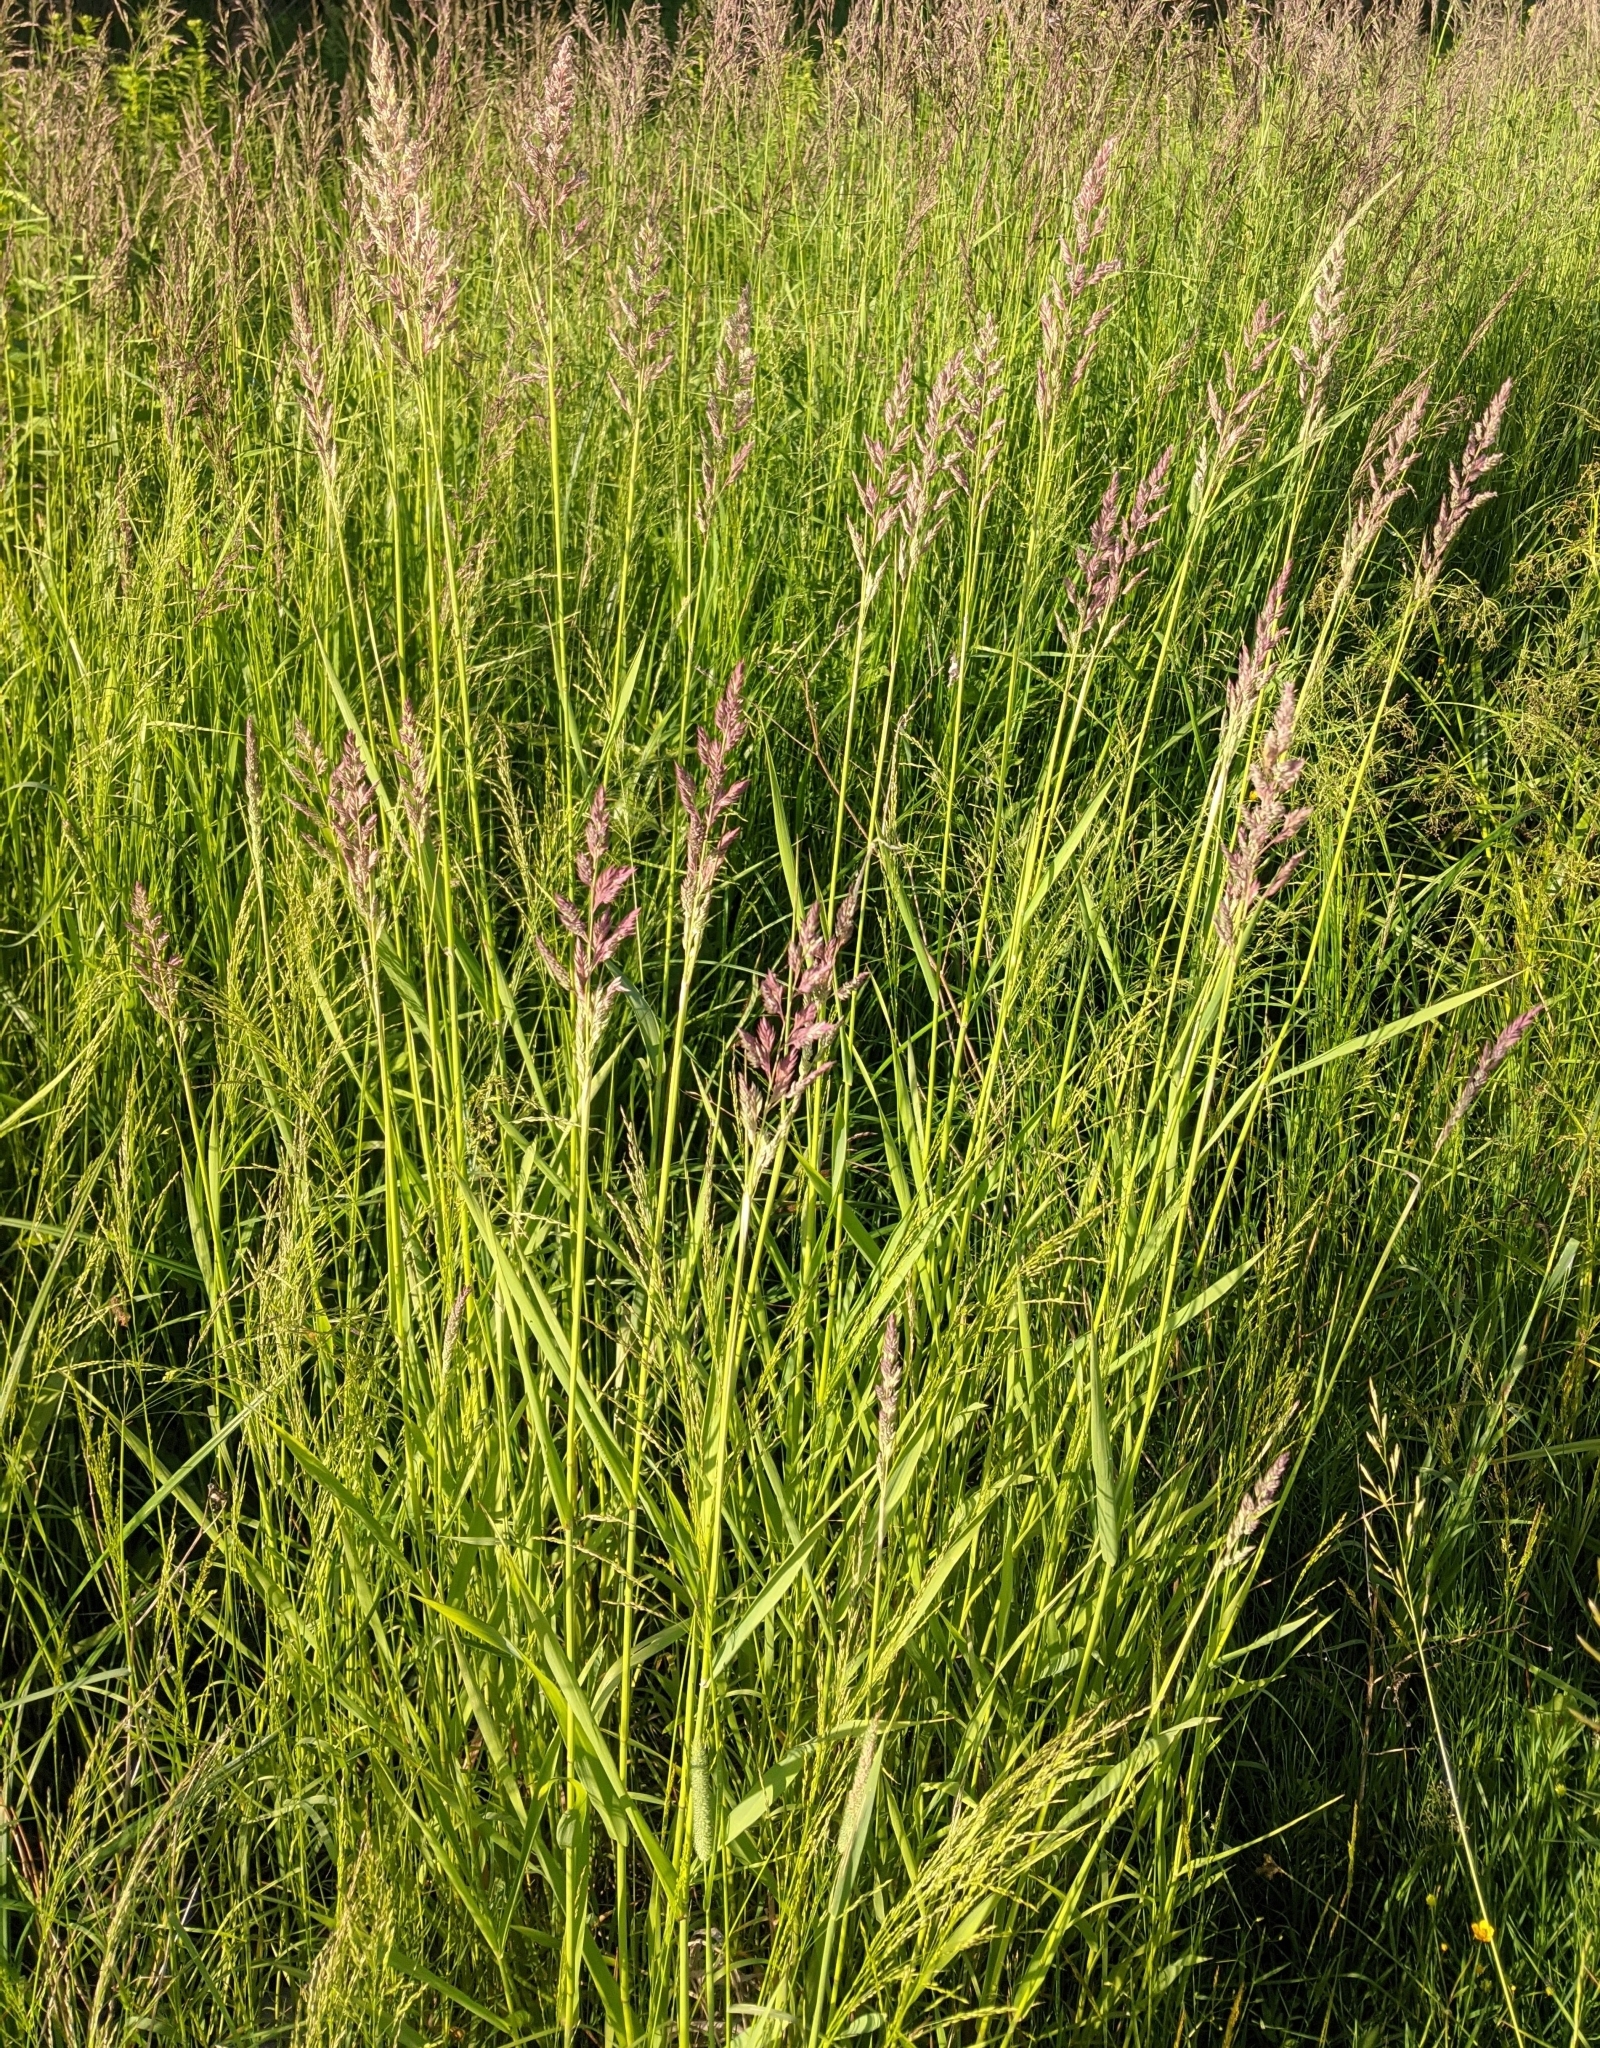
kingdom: Plantae
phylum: Tracheophyta
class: Liliopsida
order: Poales
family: Poaceae
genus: Phalaris
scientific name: Phalaris arundinacea
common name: Reed canary-grass
